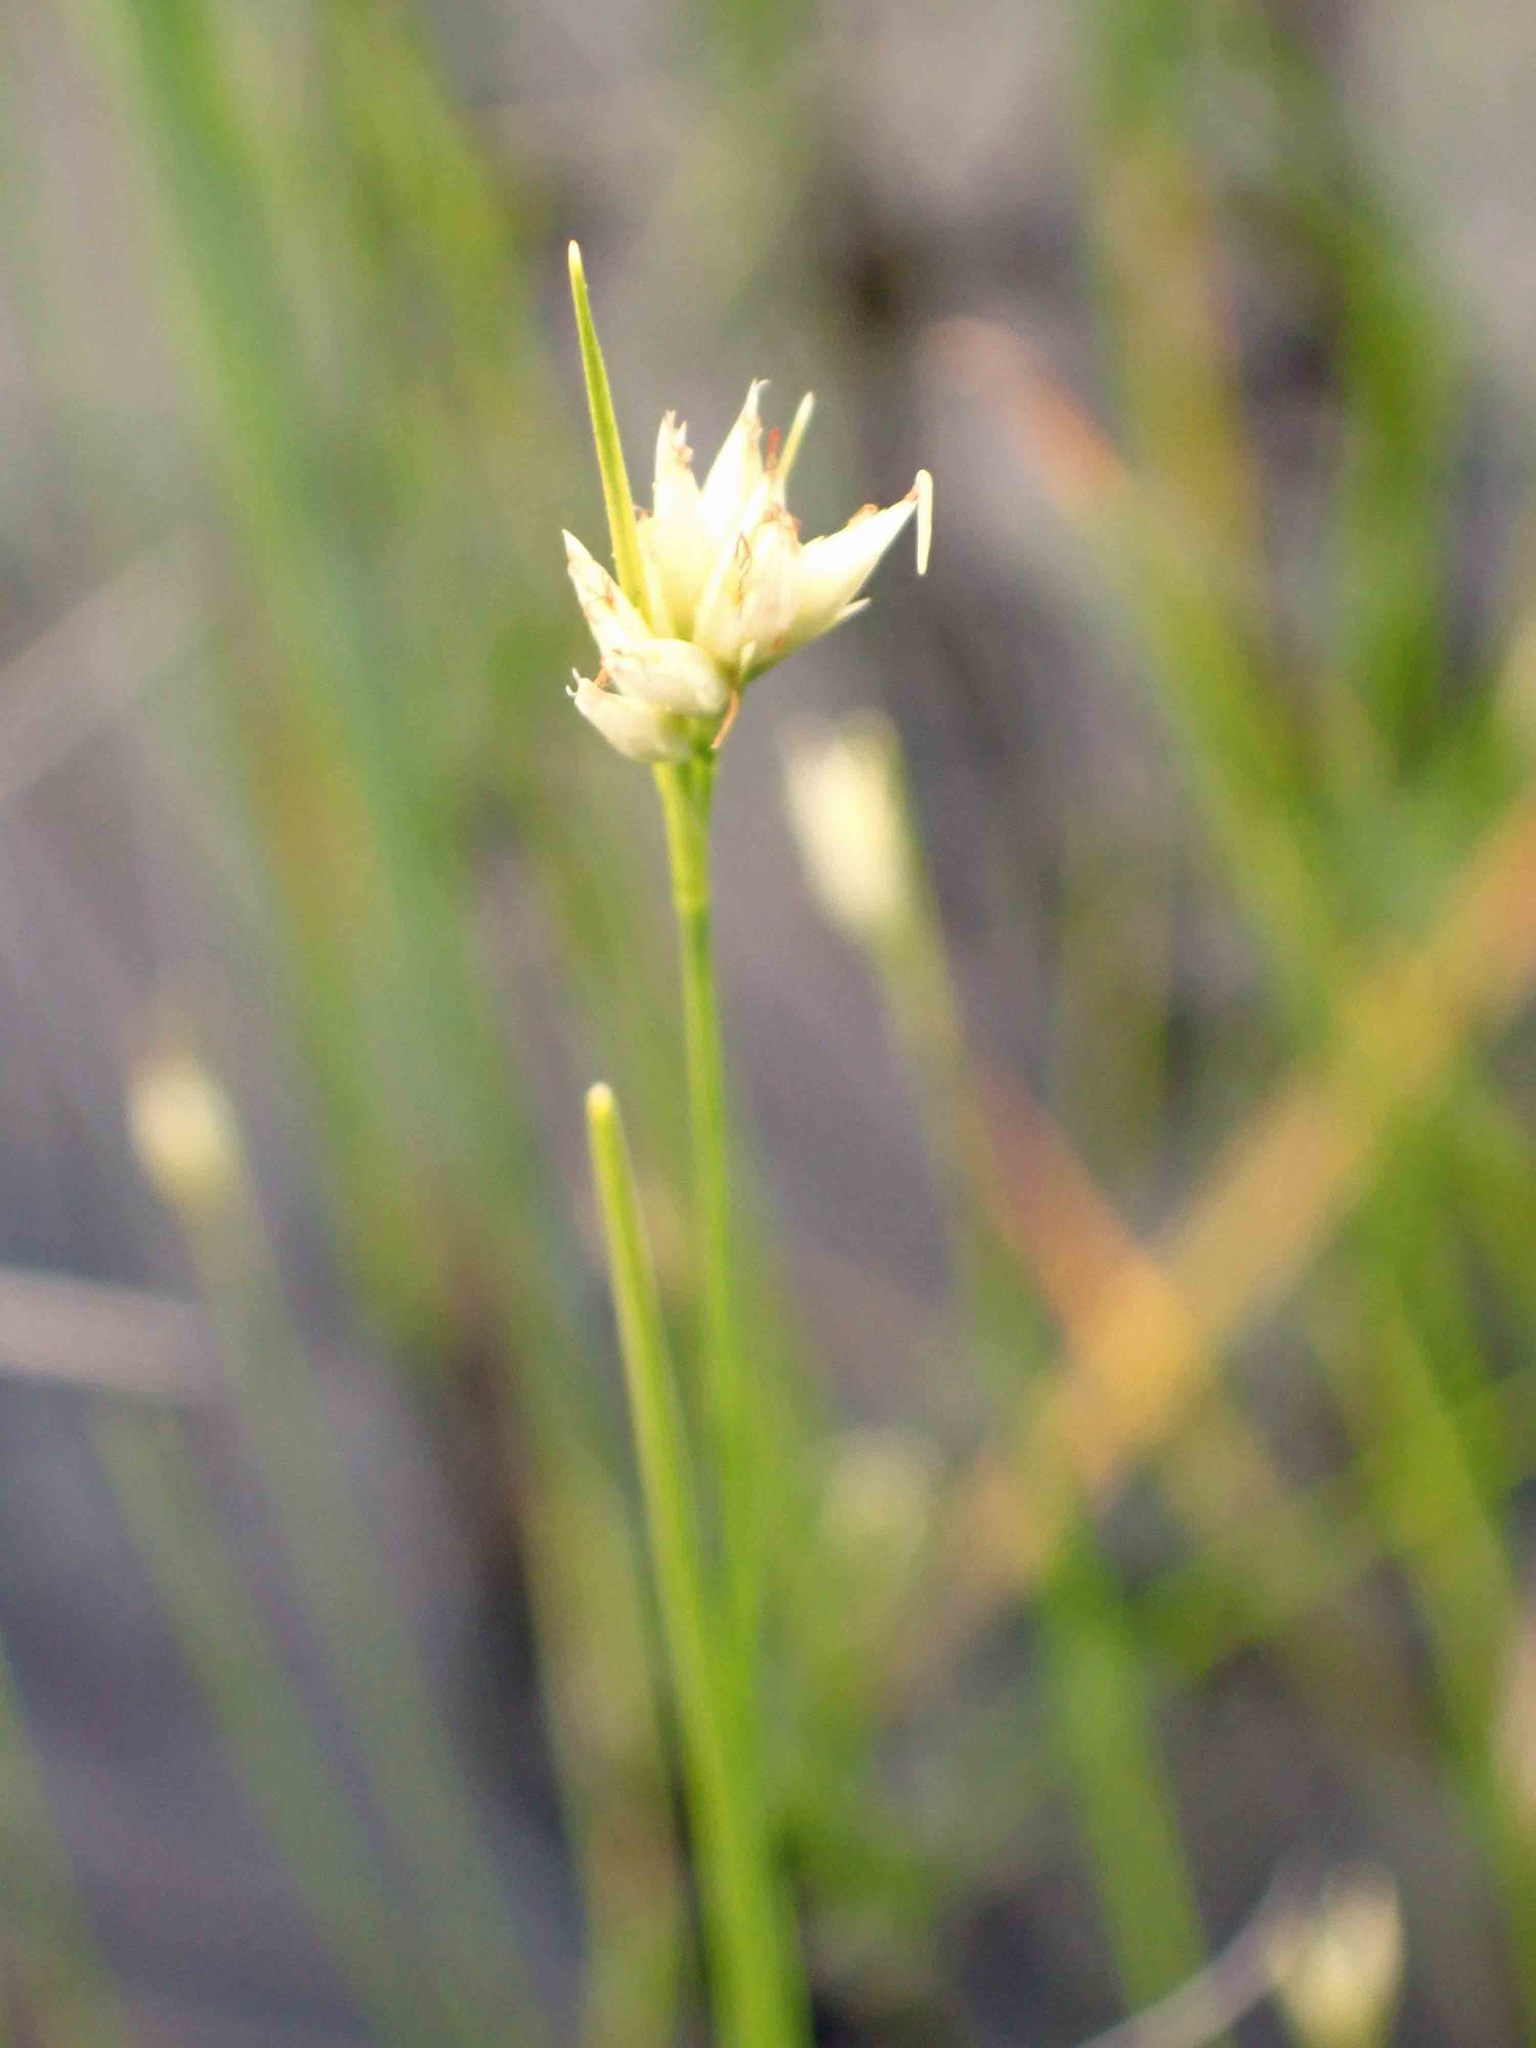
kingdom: Plantae
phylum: Tracheophyta
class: Liliopsida
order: Poales
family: Cyperaceae
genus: Rhynchospora
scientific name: Rhynchospora alba
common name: White beak-sedge
